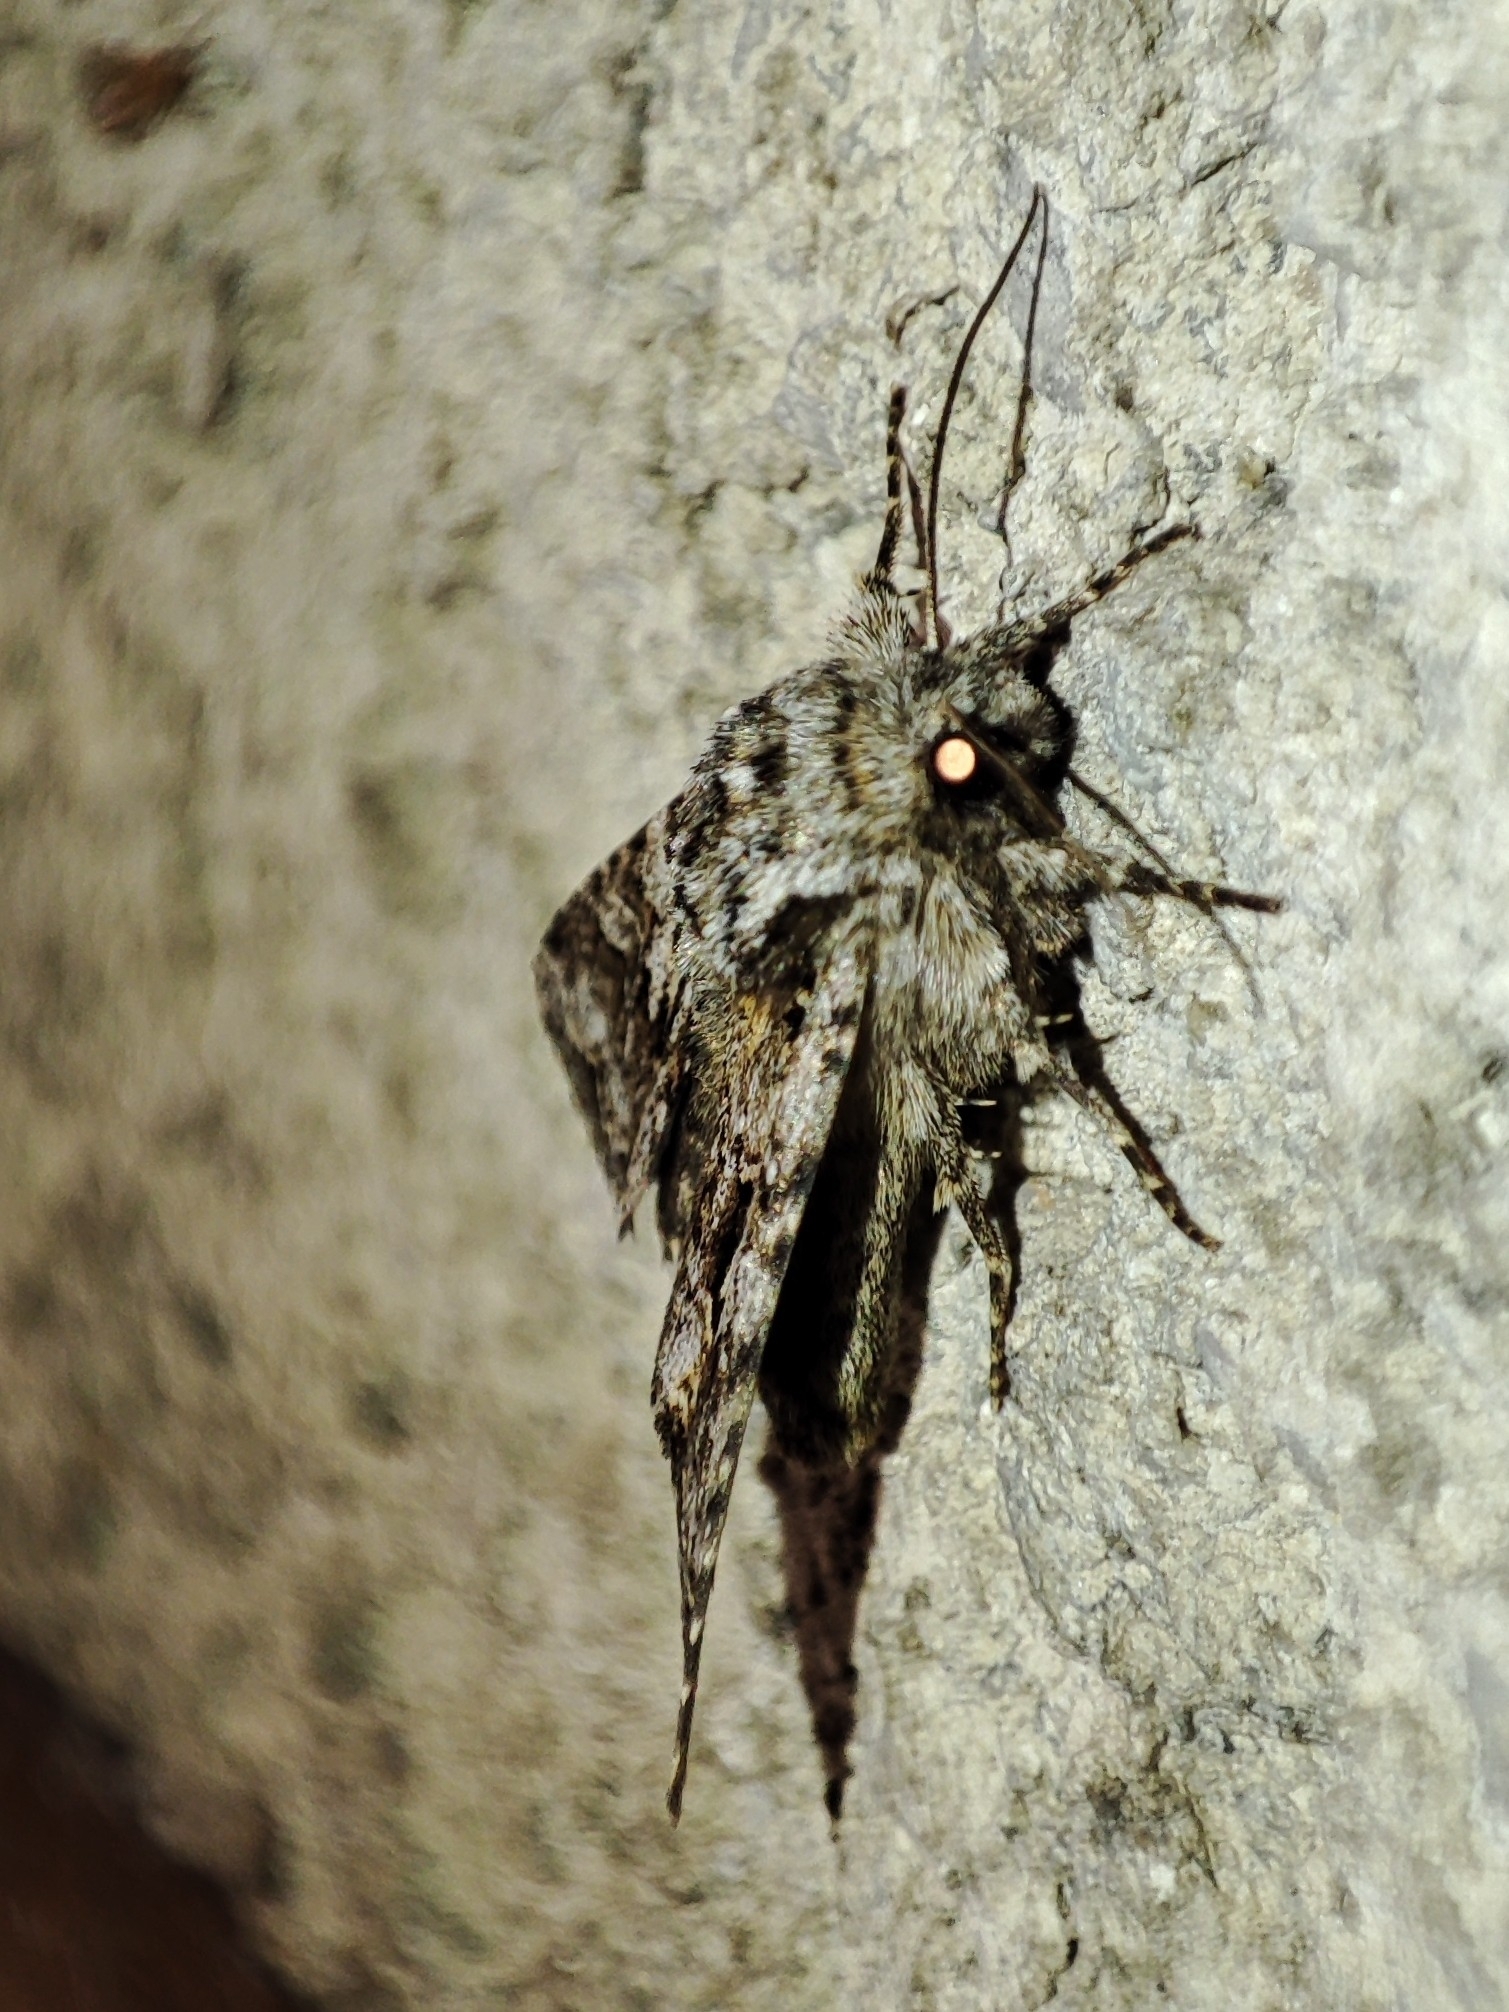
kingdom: Animalia
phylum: Arthropoda
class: Insecta
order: Lepidoptera
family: Noctuidae
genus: Hada
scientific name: Hada plebeja
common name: Shears
